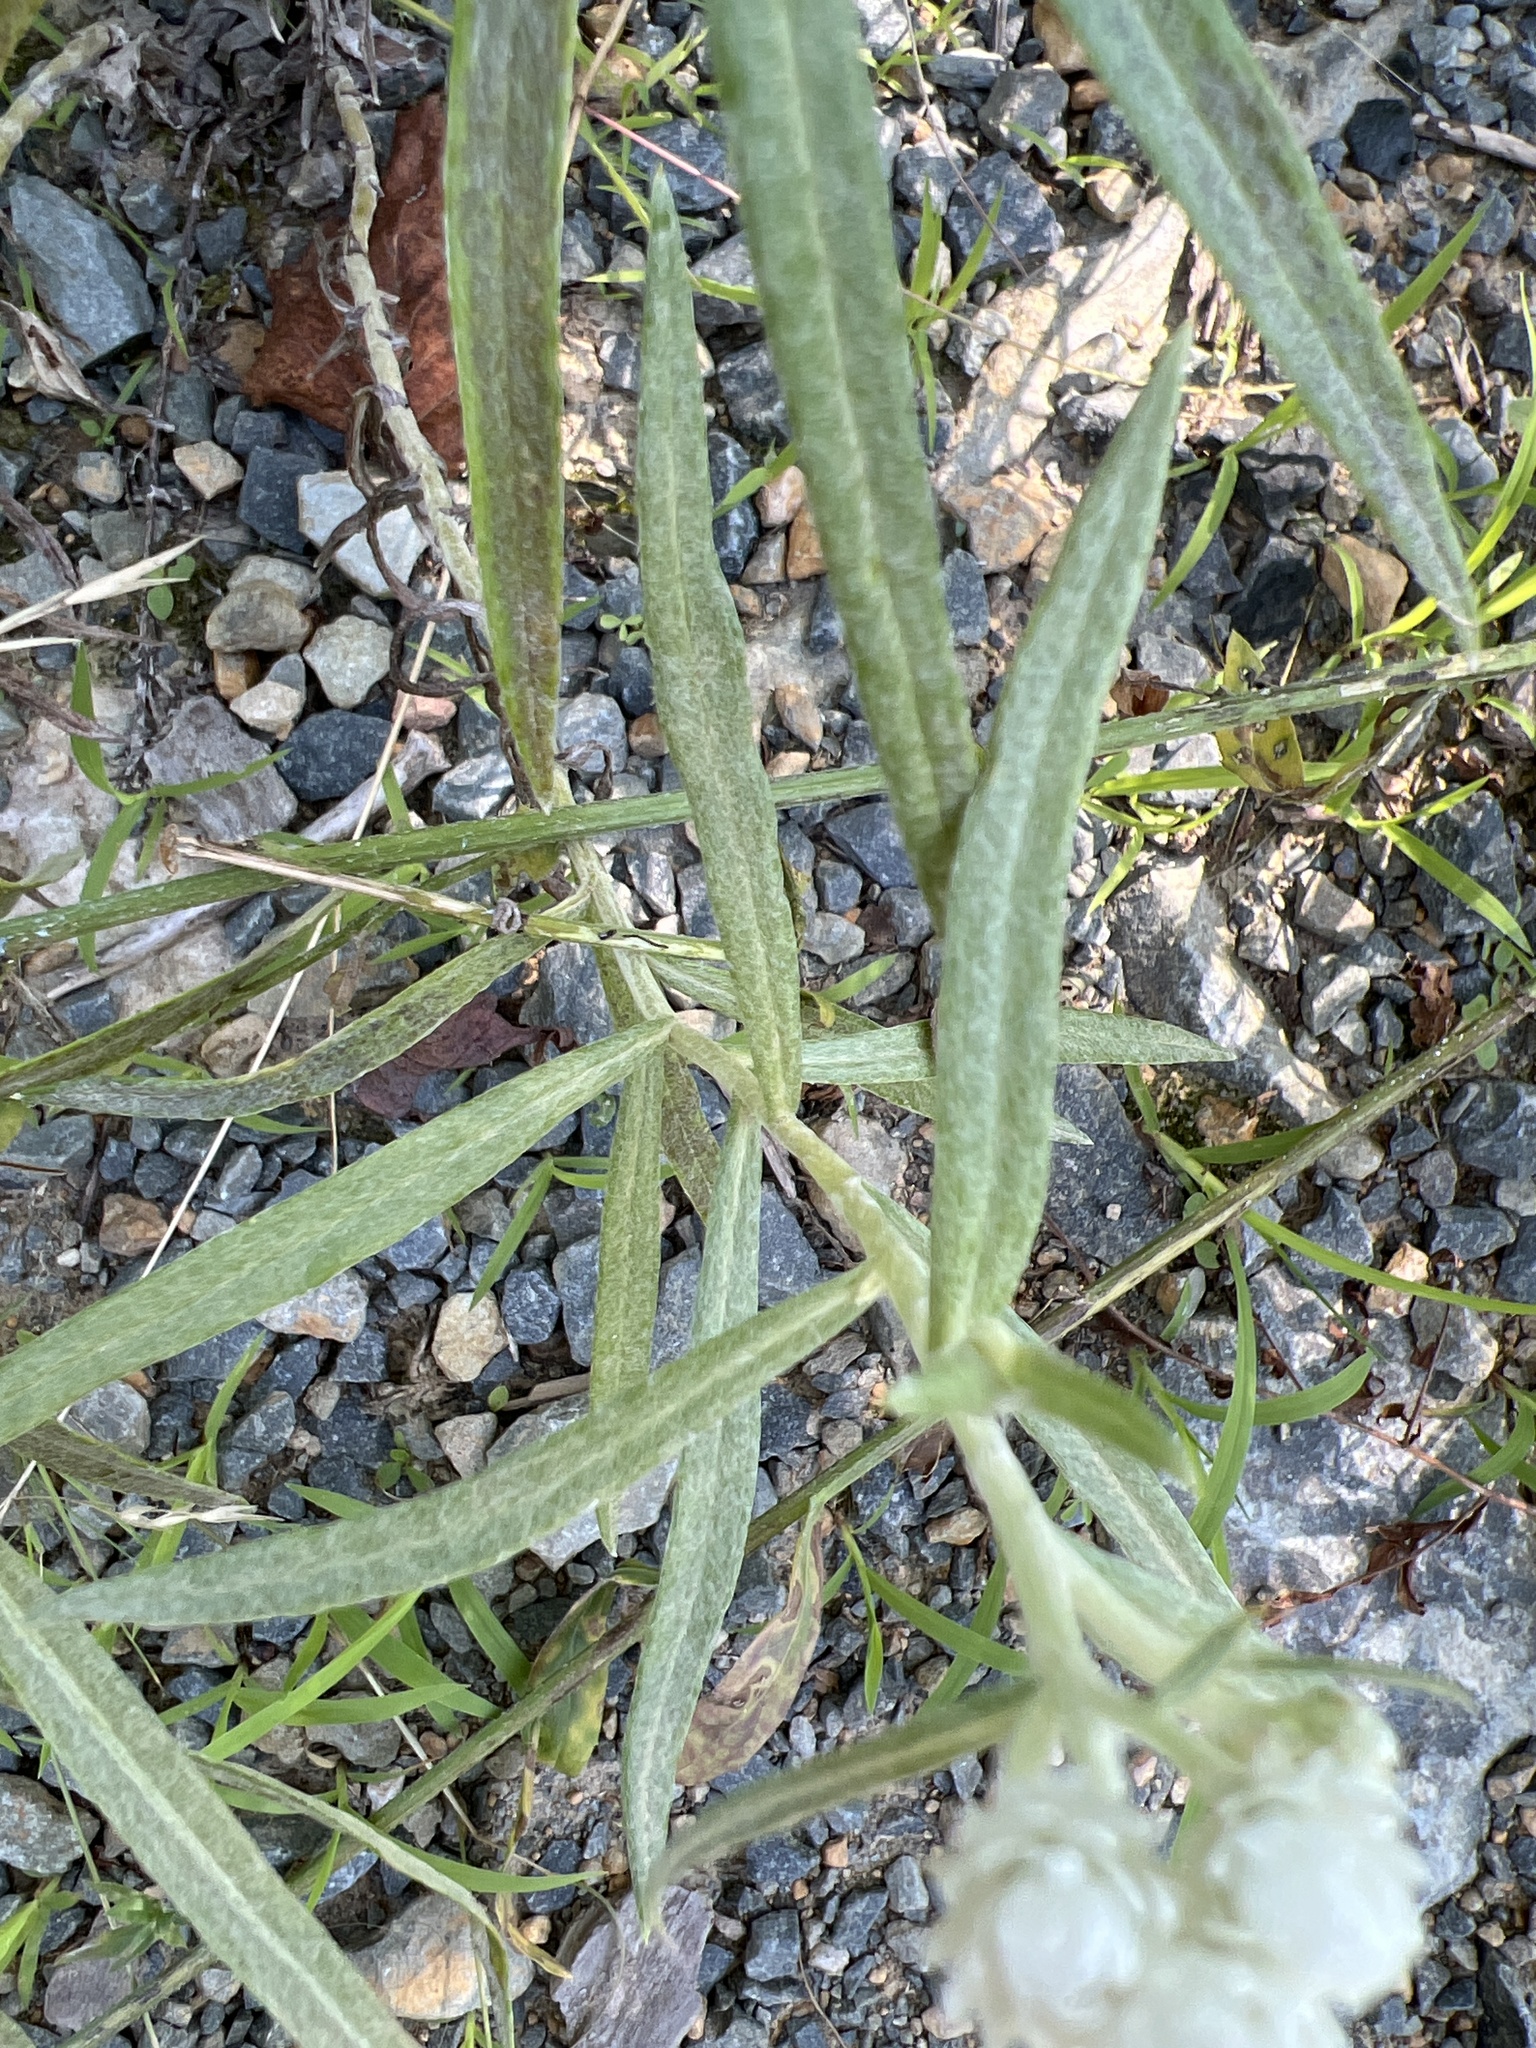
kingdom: Plantae
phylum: Tracheophyta
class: Magnoliopsida
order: Asterales
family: Asteraceae
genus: Anaphalis
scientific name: Anaphalis margaritacea
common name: Pearly everlasting
